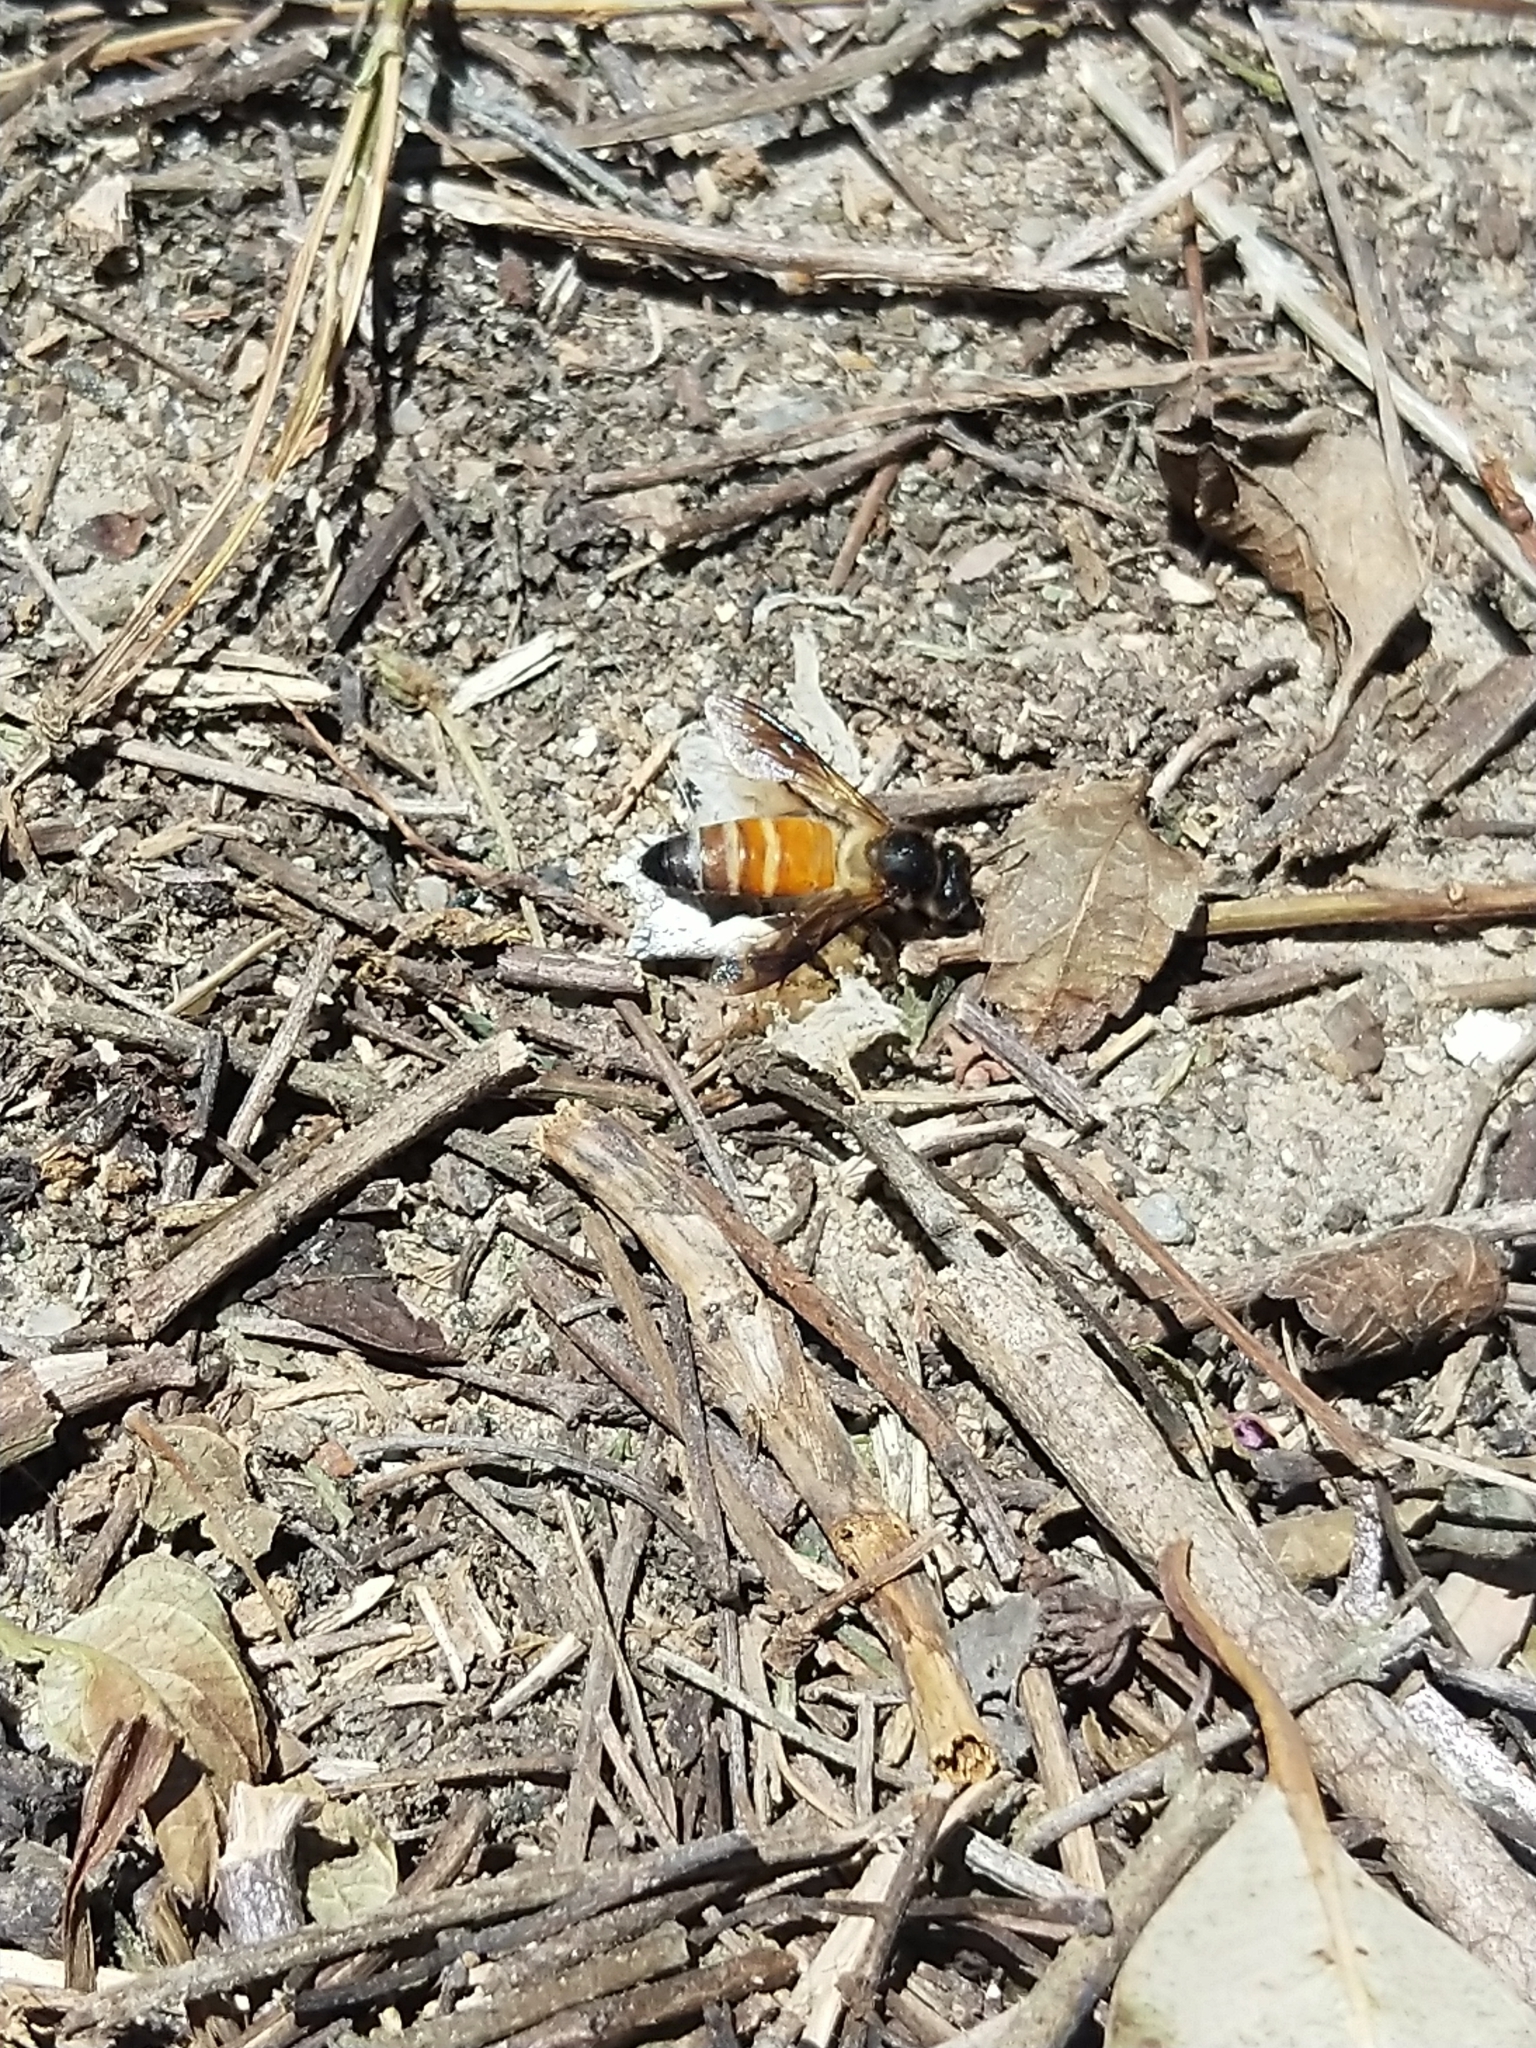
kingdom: Animalia
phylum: Arthropoda
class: Insecta
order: Hymenoptera
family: Apidae
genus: Apis
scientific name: Apis dorsata
